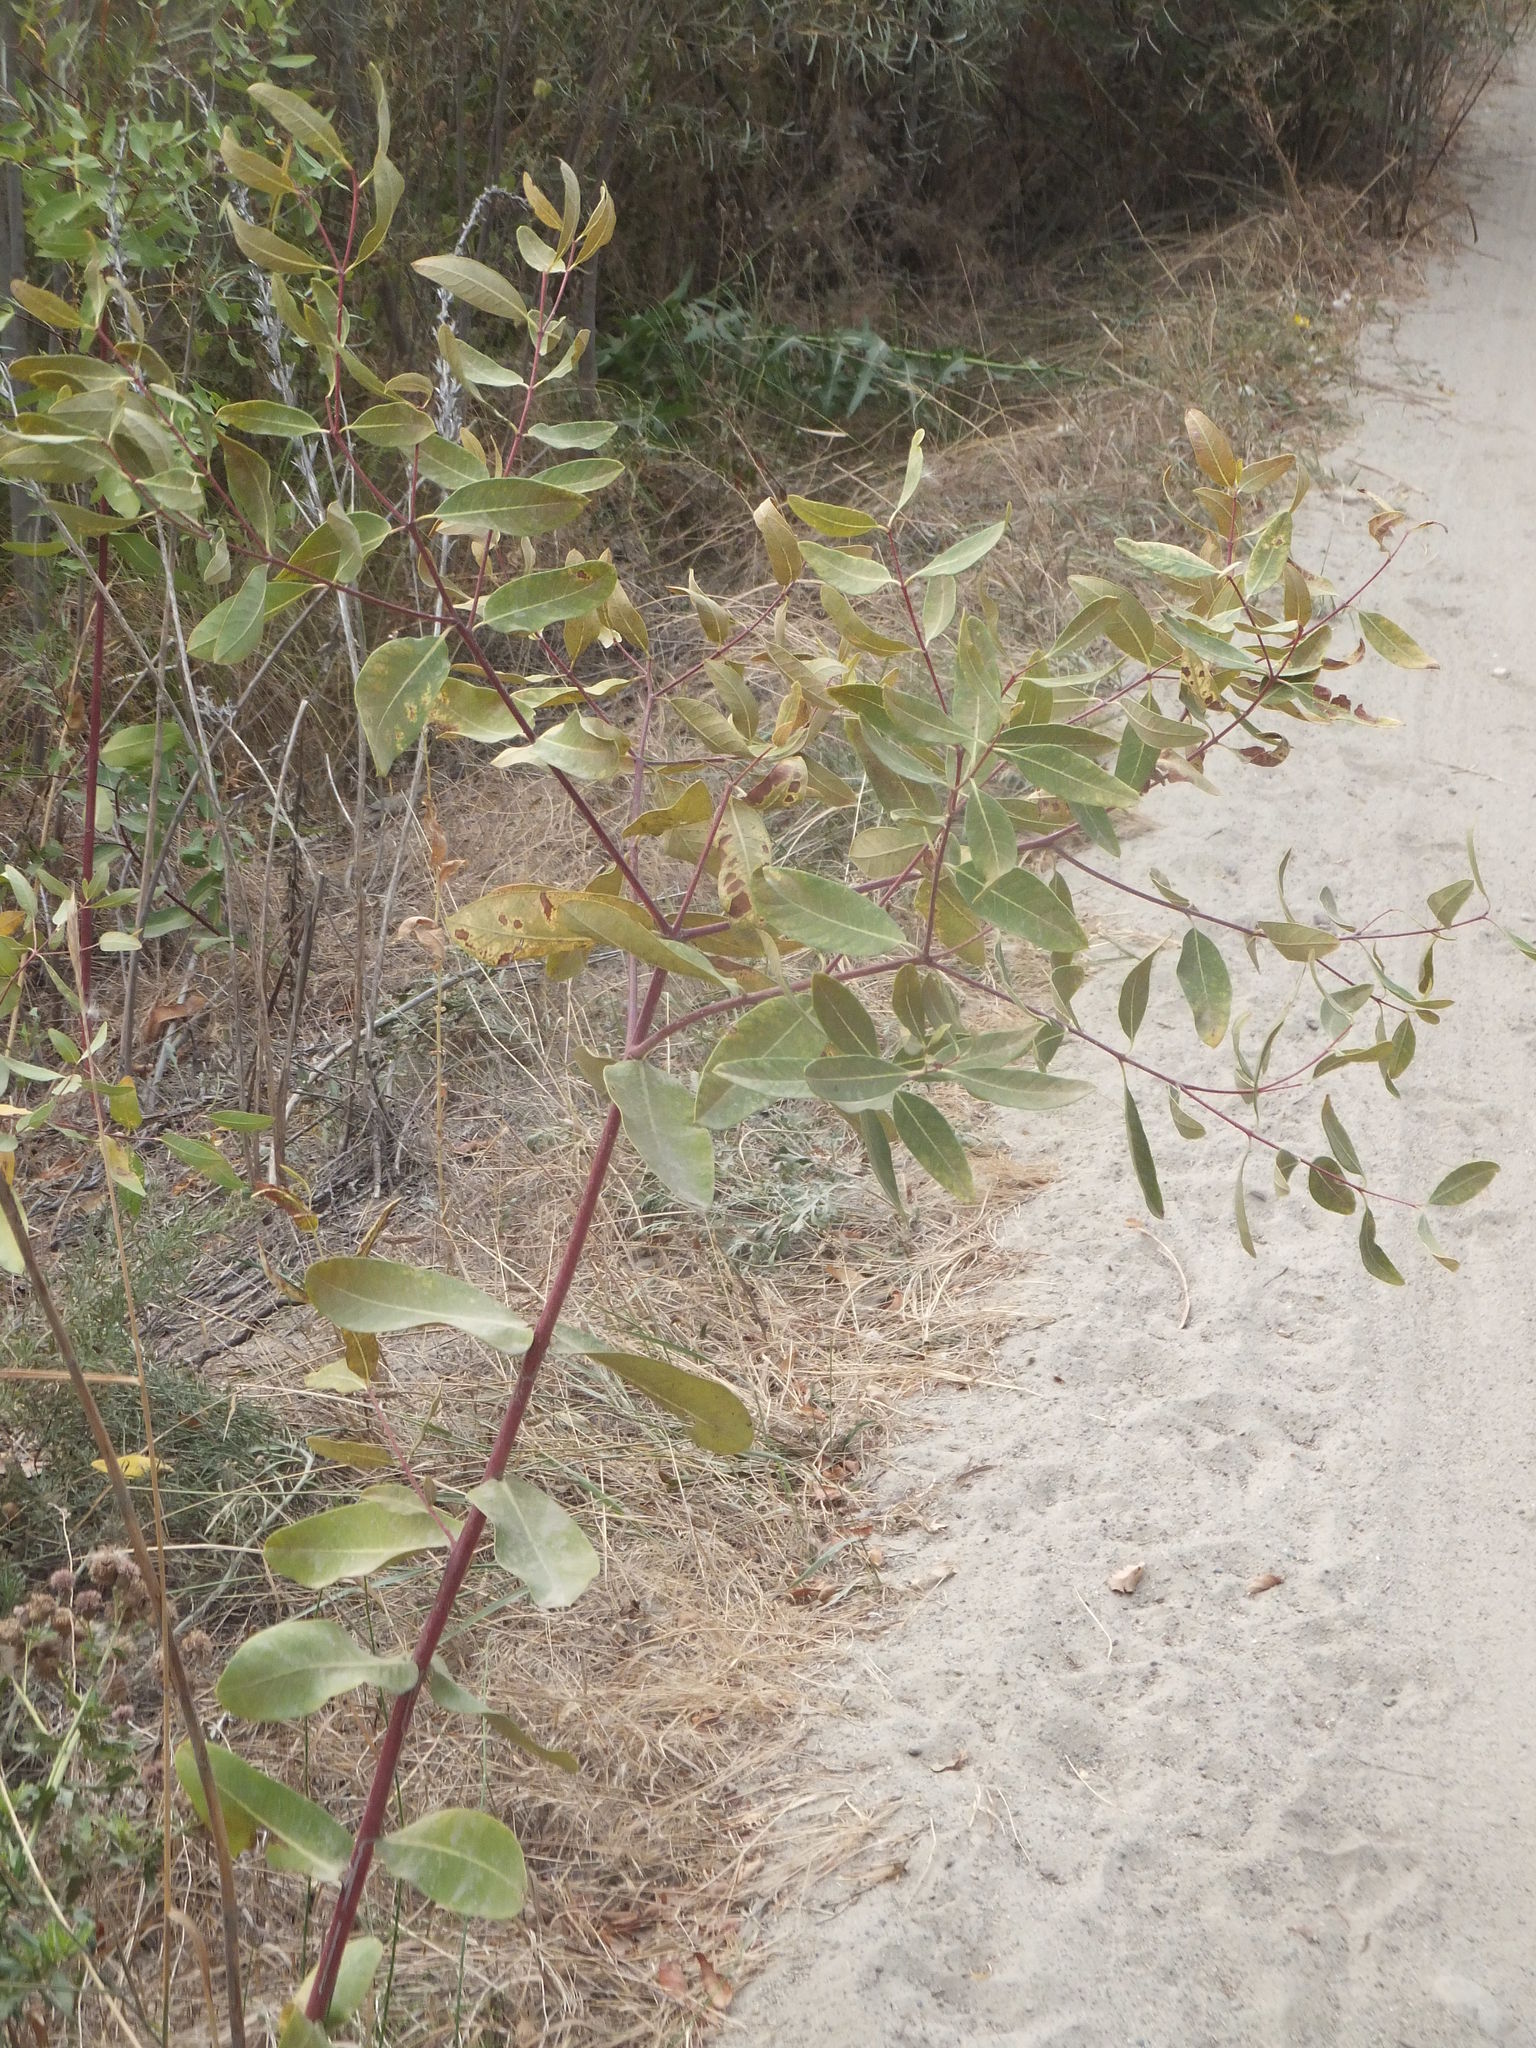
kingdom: Plantae
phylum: Tracheophyta
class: Magnoliopsida
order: Gentianales
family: Apocynaceae
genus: Apocynum
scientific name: Apocynum cannabinum
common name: Hemp dogbane
